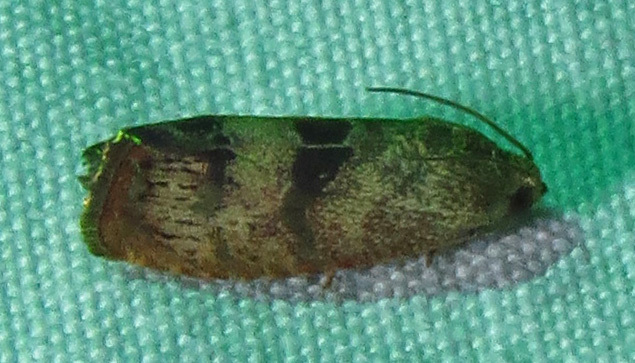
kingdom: Animalia
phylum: Arthropoda
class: Insecta
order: Lepidoptera
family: Tortricidae
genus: Cydia
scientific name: Cydia latiferreana
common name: Filbertworm moth
